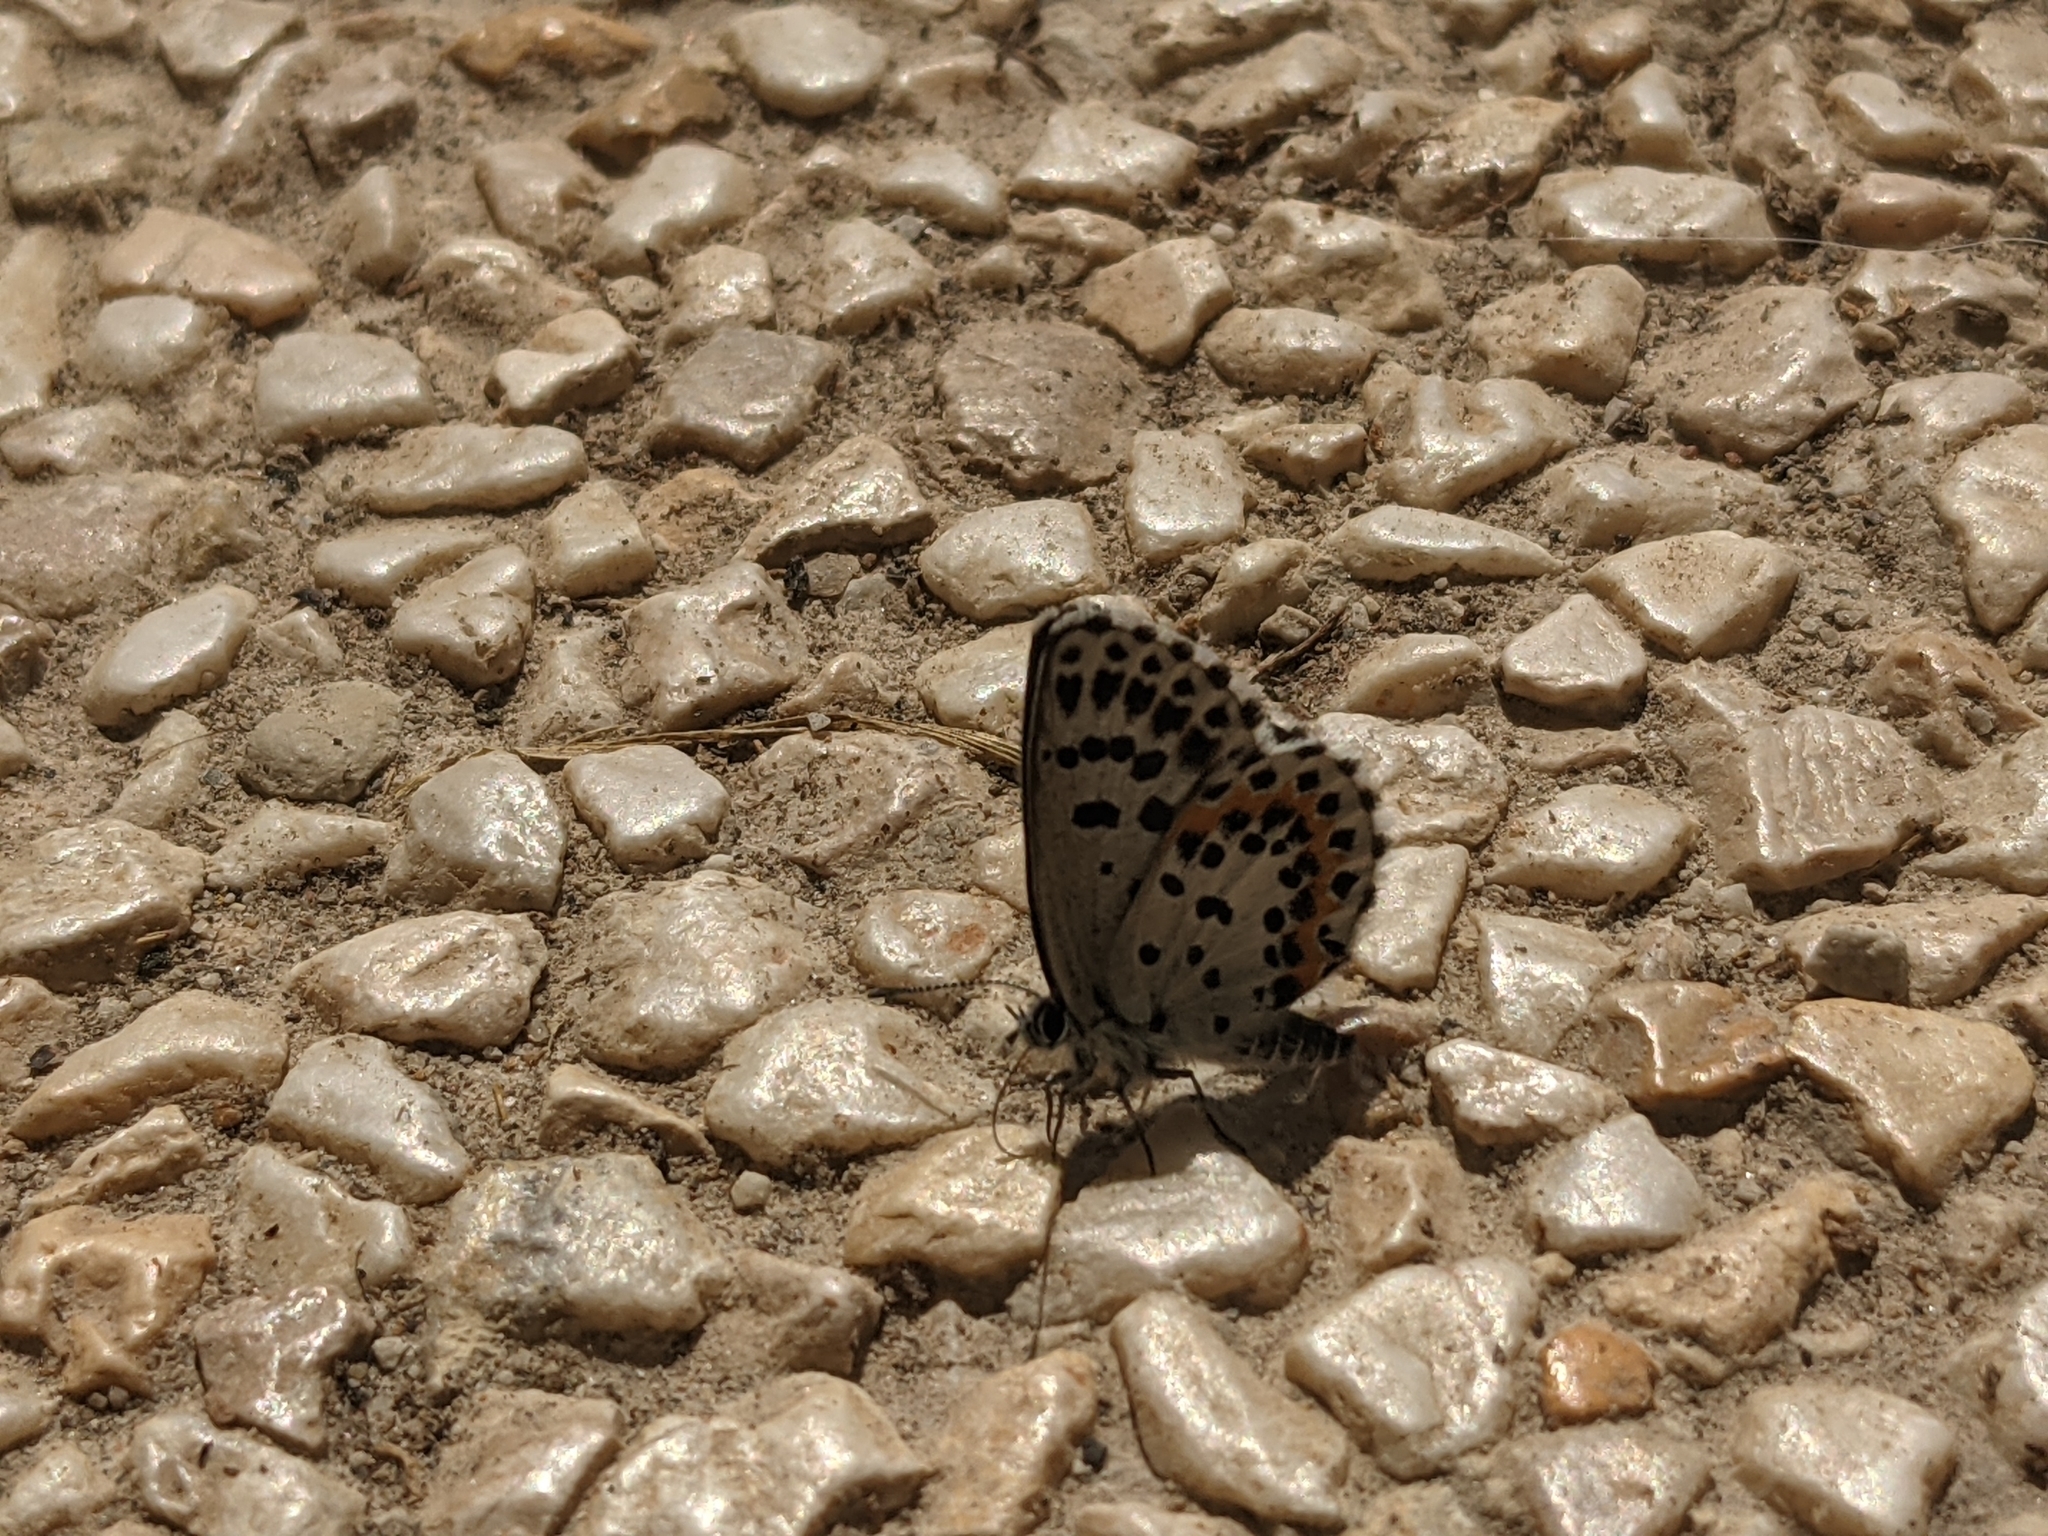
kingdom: Animalia
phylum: Arthropoda
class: Insecta
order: Lepidoptera
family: Lycaenidae
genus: Scolitantides
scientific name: Scolitantides orion
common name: Chequered blue
